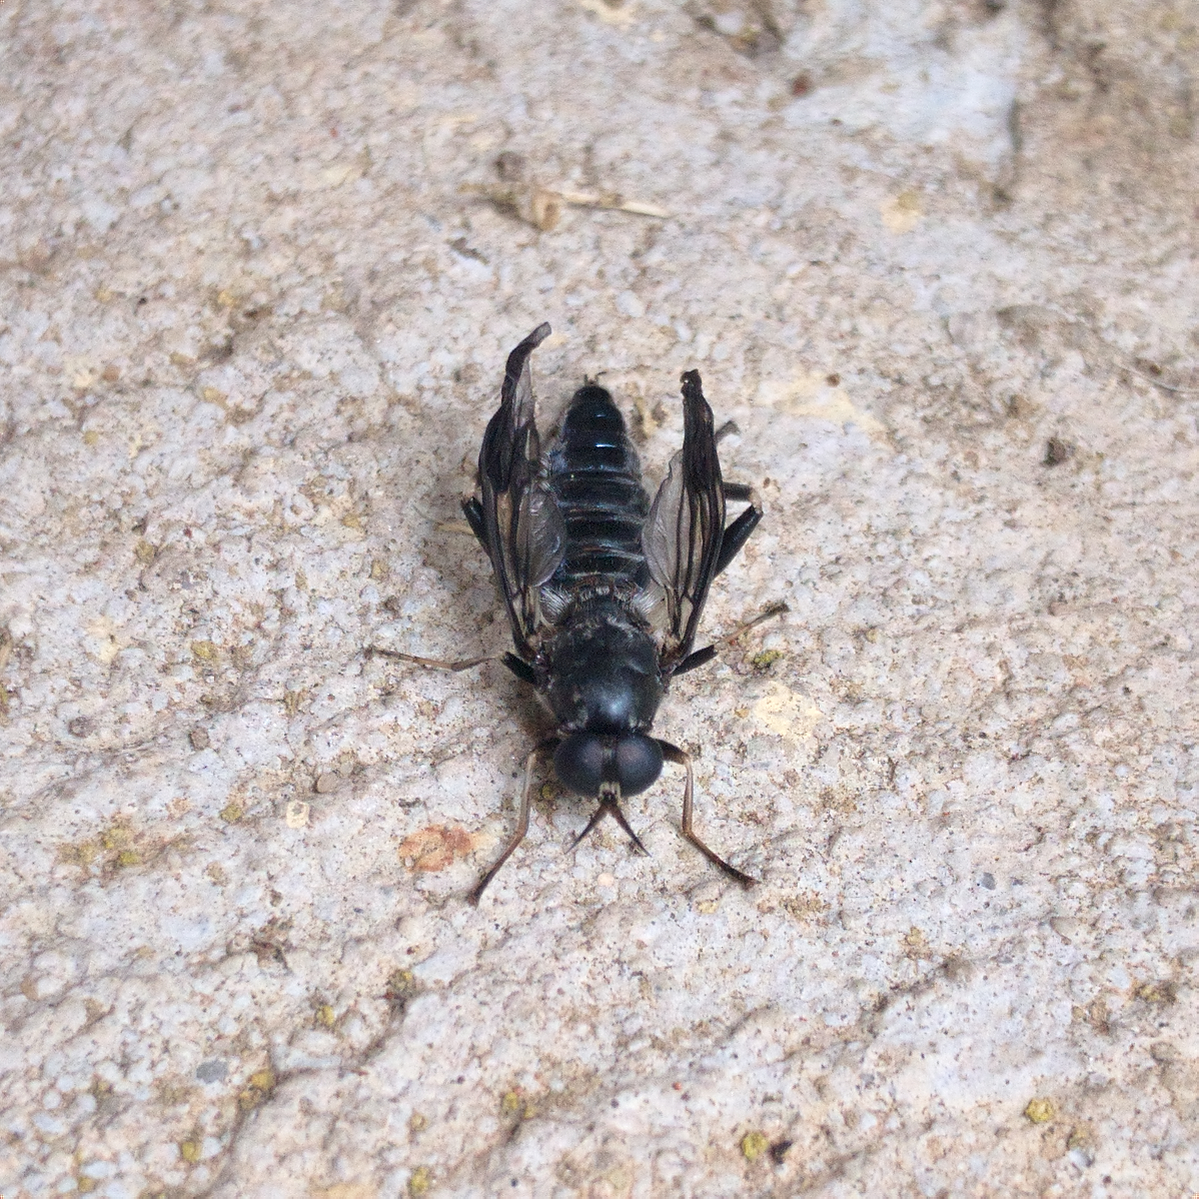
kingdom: Animalia
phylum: Arthropoda
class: Insecta
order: Diptera
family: Stratiomyidae
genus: Exaireta
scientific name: Exaireta spinigera
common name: Blue soldier fly
